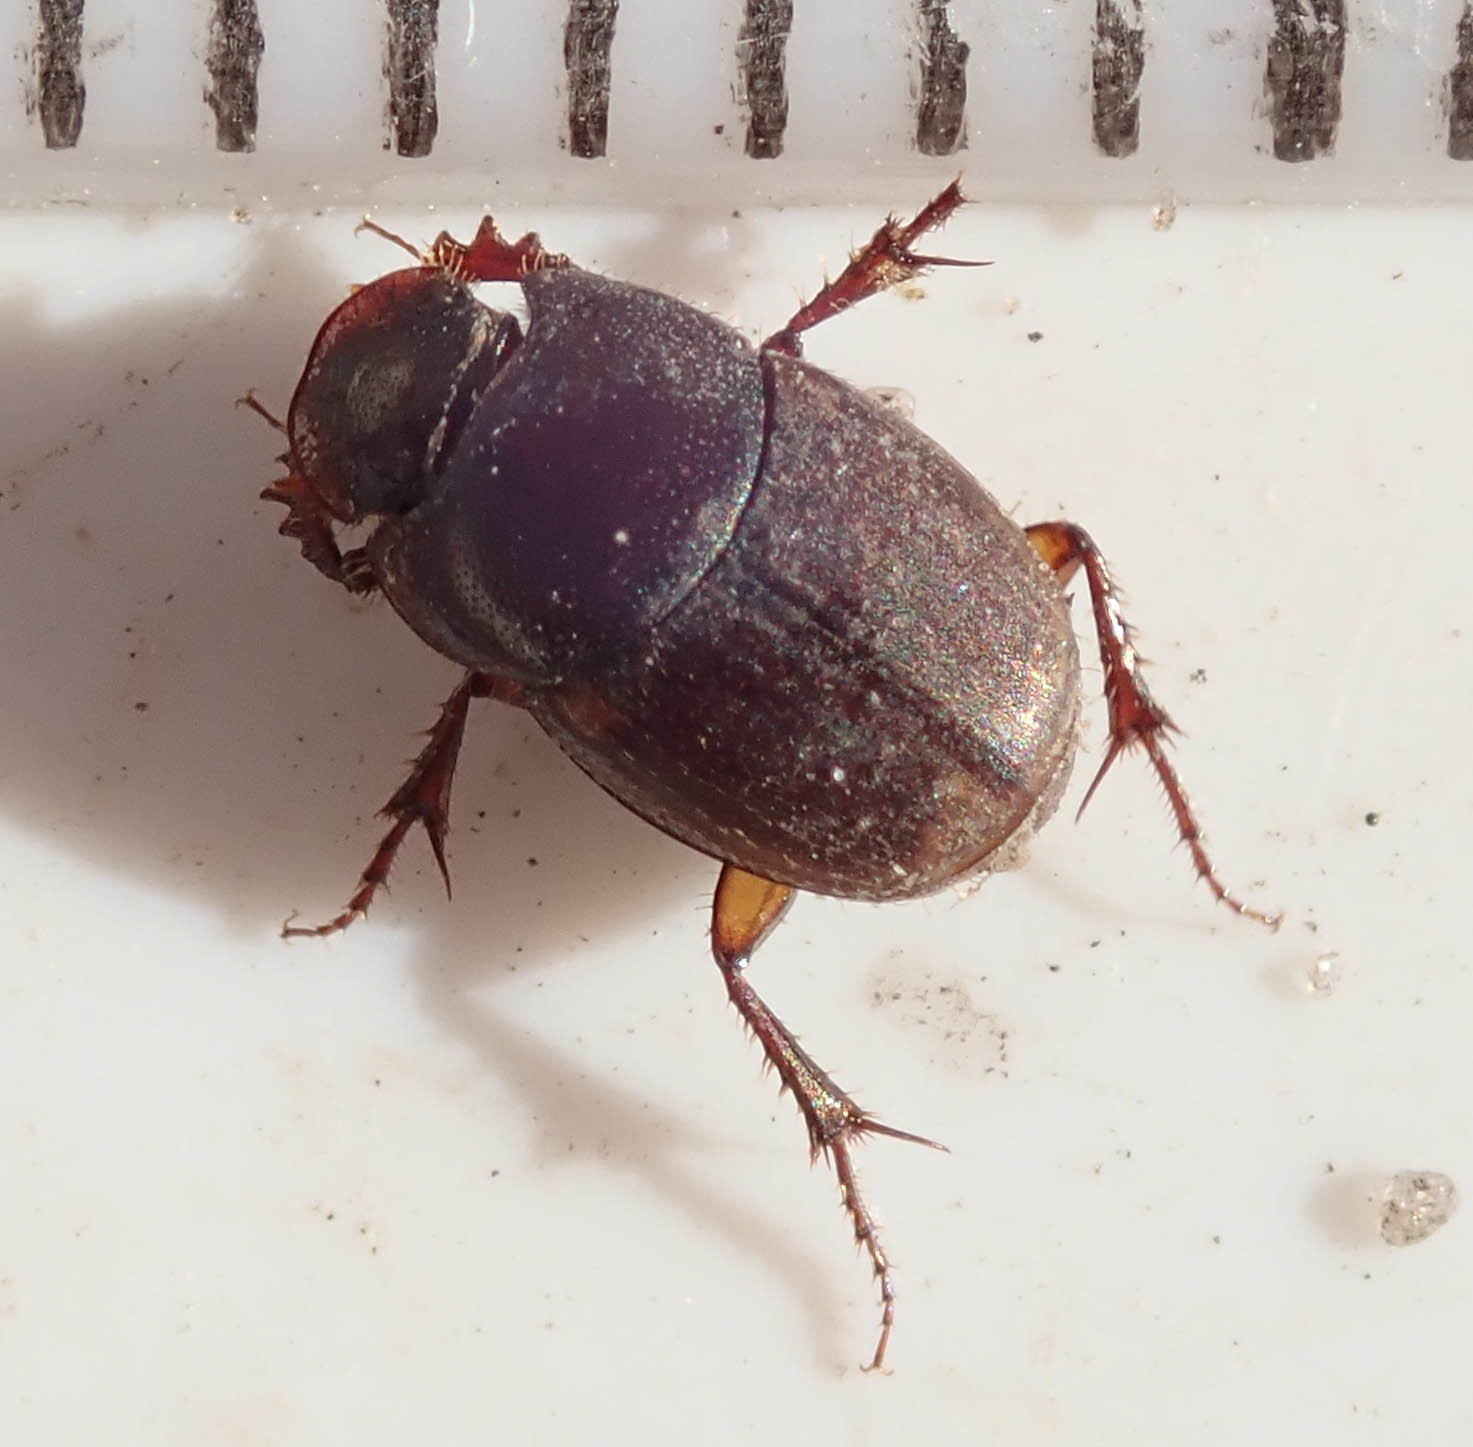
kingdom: Animalia
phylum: Arthropoda
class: Insecta
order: Coleoptera
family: Scarabaeidae
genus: Onthophagus
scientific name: Onthophagus vinctus
